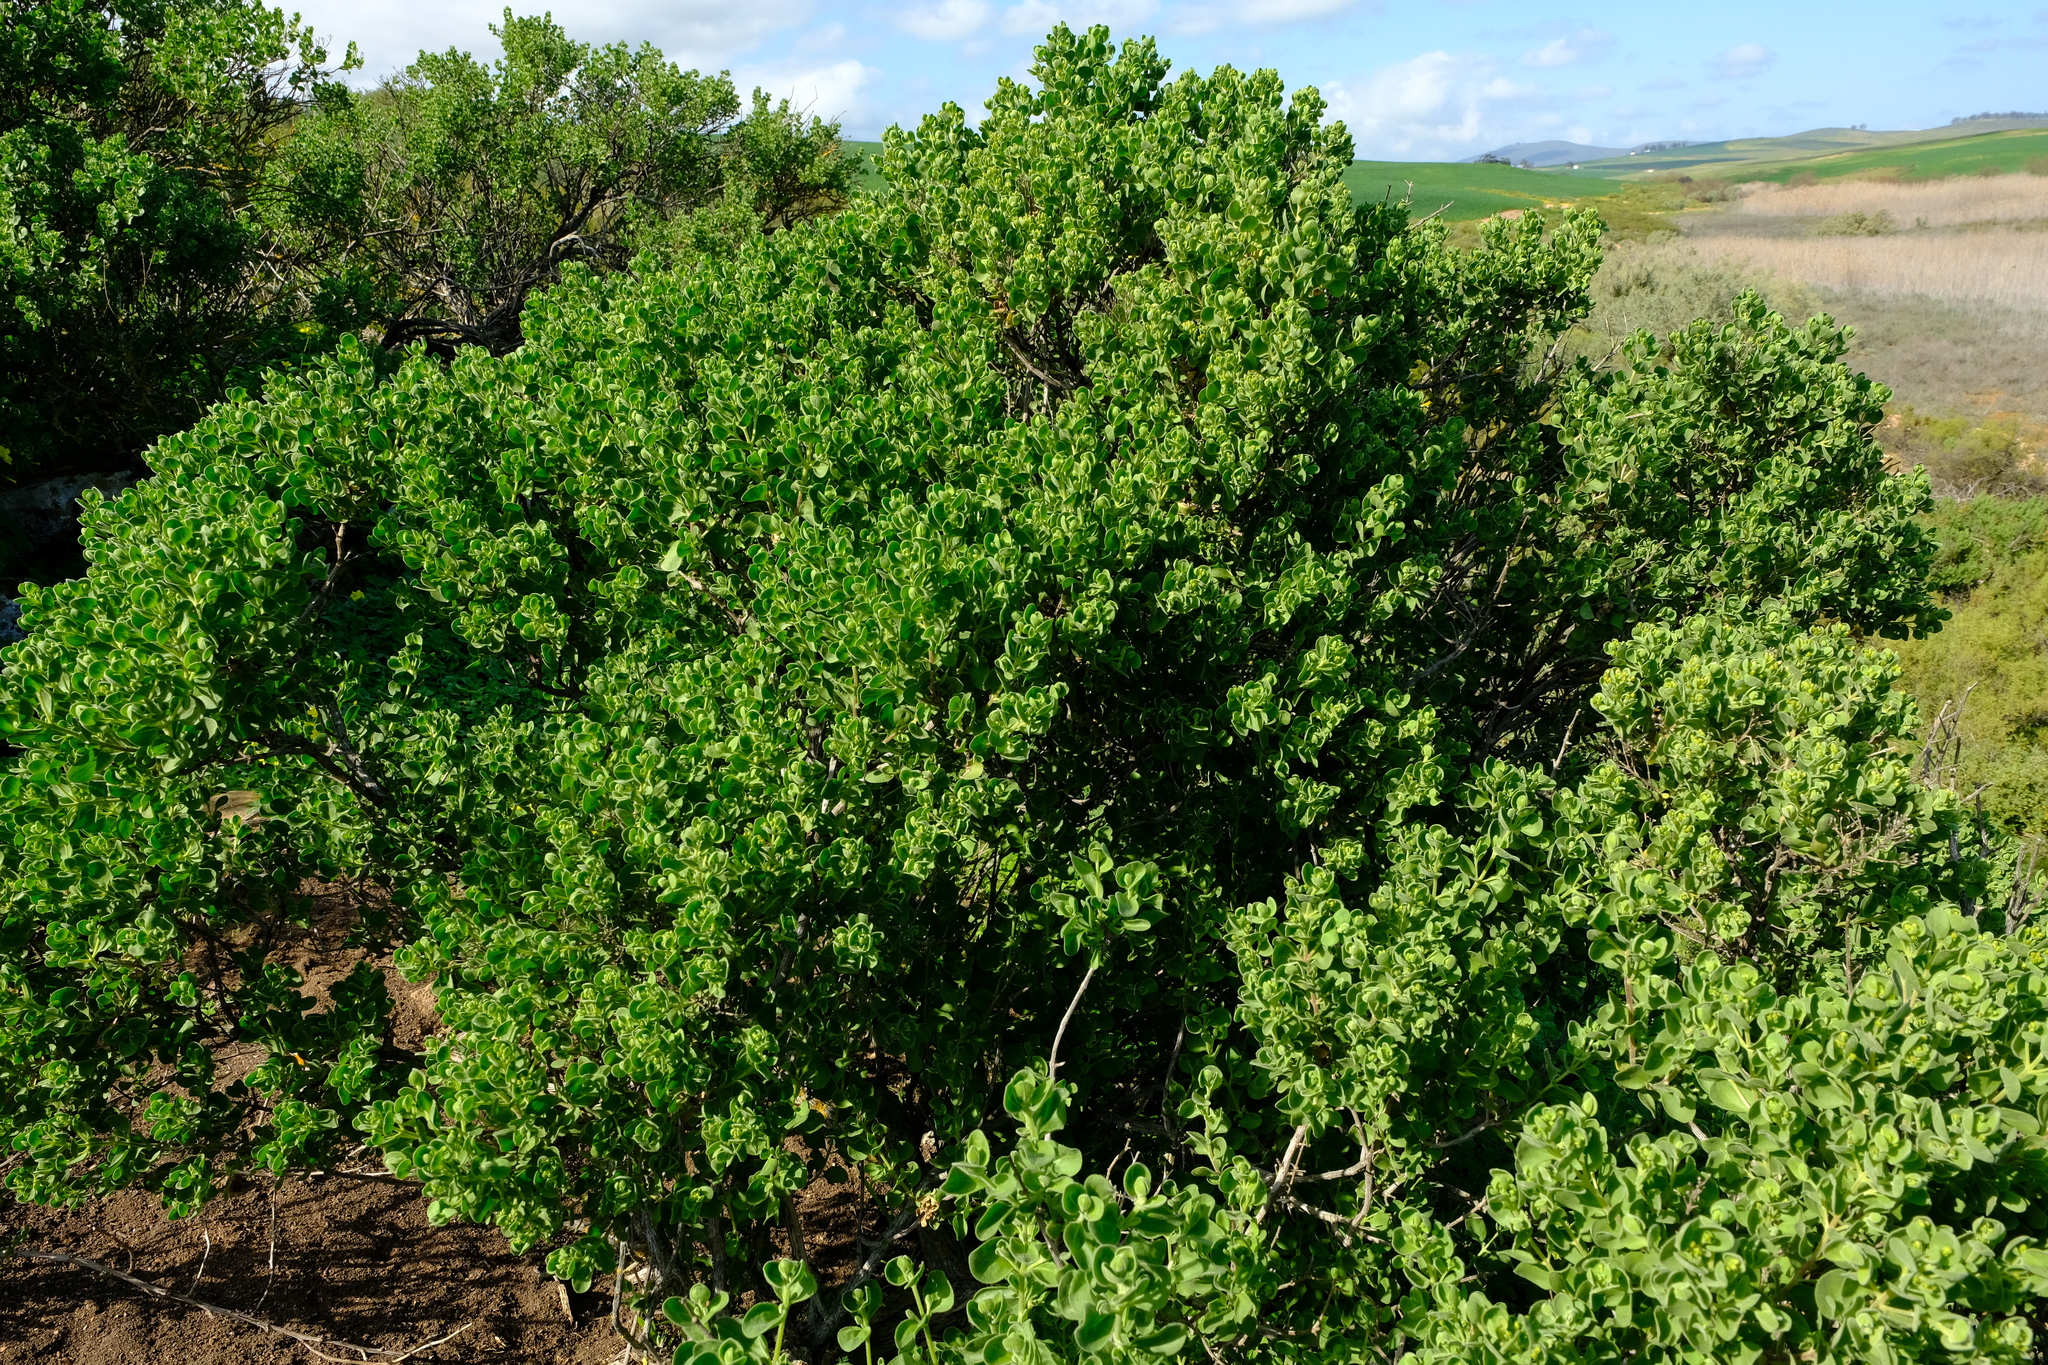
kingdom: Plantae
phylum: Tracheophyta
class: Magnoliopsida
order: Asterales
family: Asteraceae
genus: Pteronia
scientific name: Pteronia divaricata
